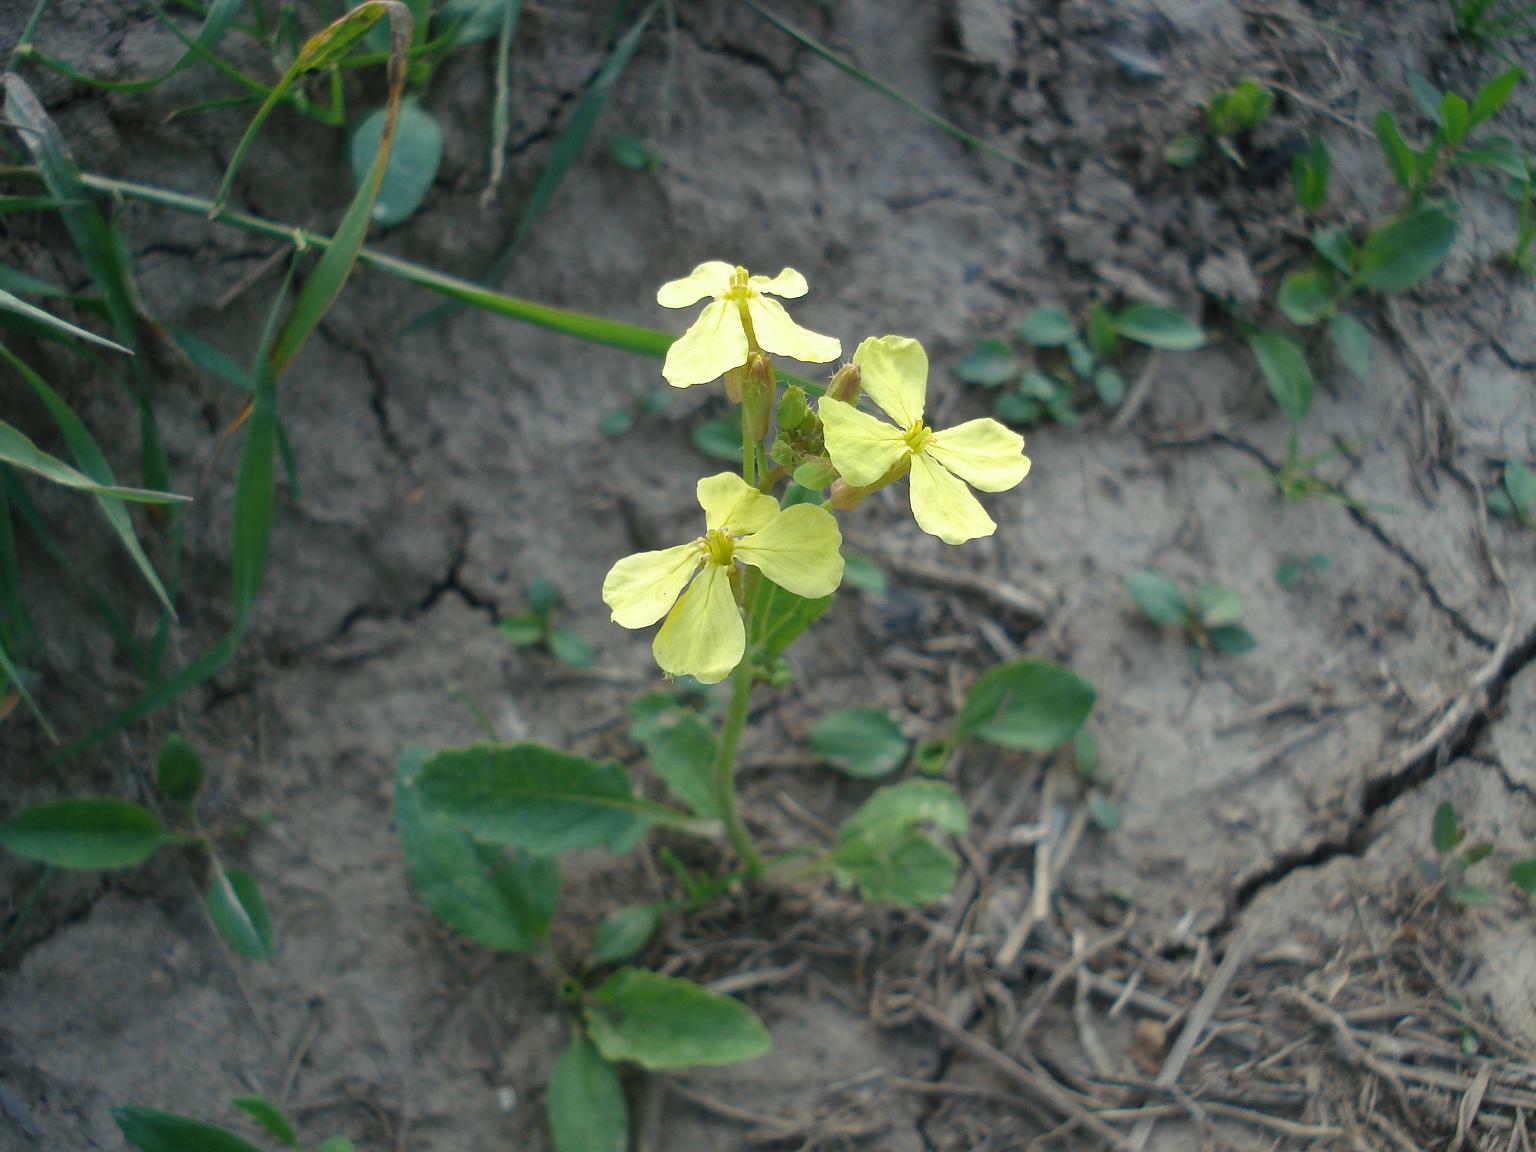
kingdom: Plantae
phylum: Tracheophyta
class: Magnoliopsida
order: Brassicales
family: Brassicaceae
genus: Raphanus
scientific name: Raphanus raphanistrum
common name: Wild radish
